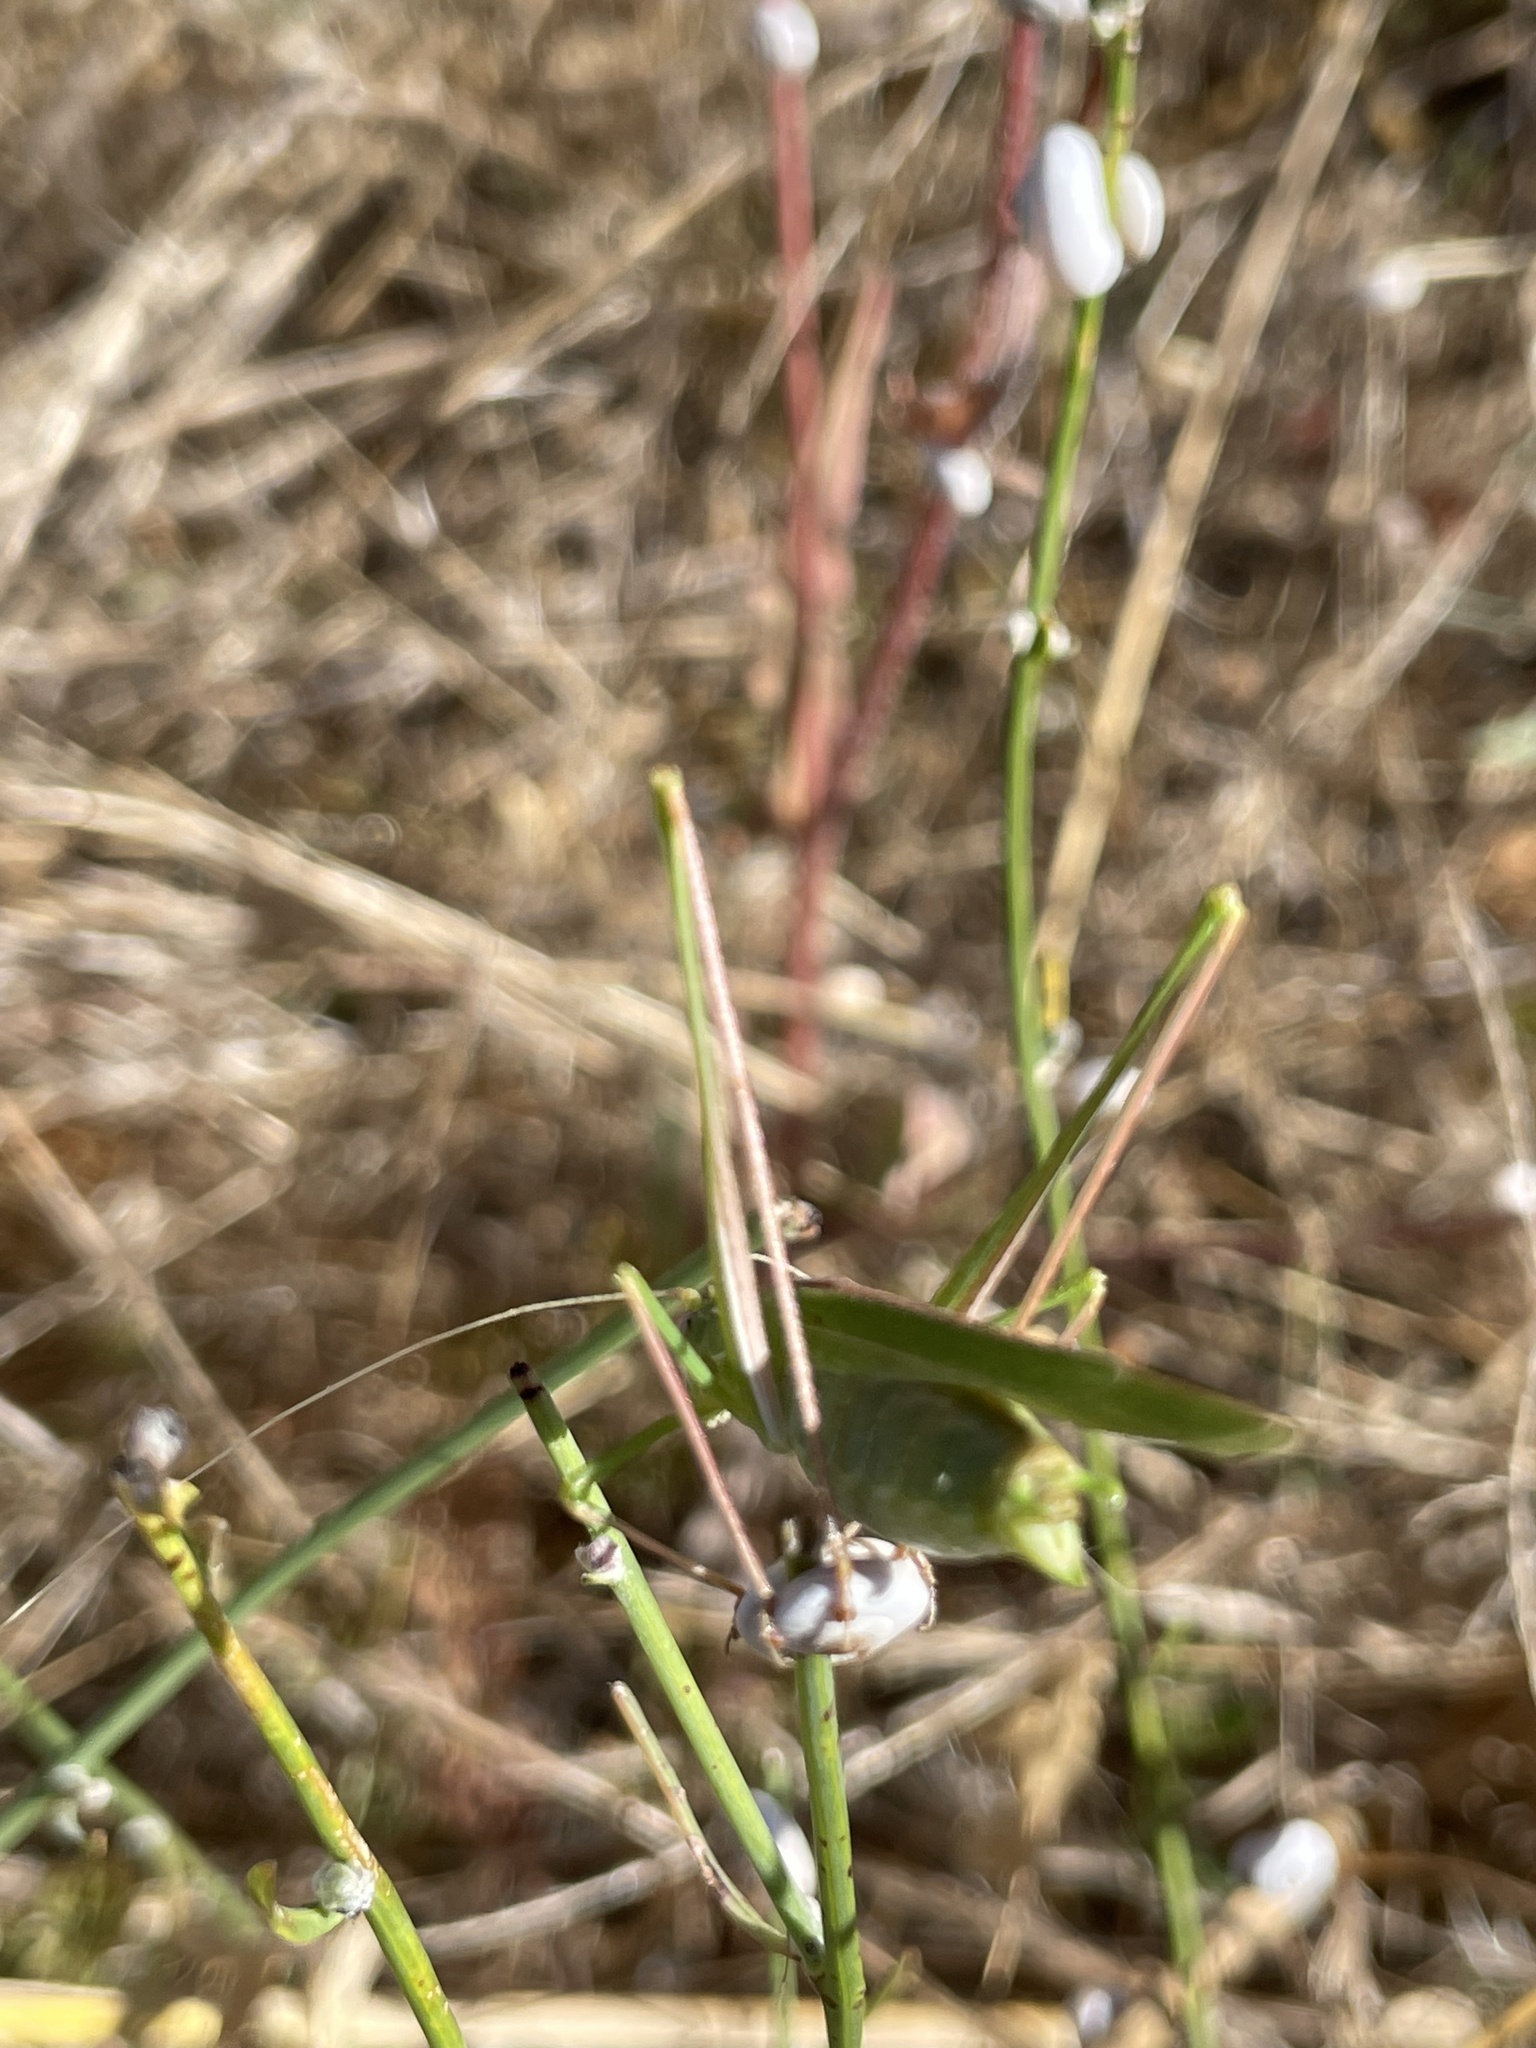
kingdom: Animalia
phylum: Arthropoda
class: Insecta
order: Orthoptera
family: Tettigoniidae
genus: Tylopsis
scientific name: Tylopsis lilifolia
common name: Lily bush-cricket
